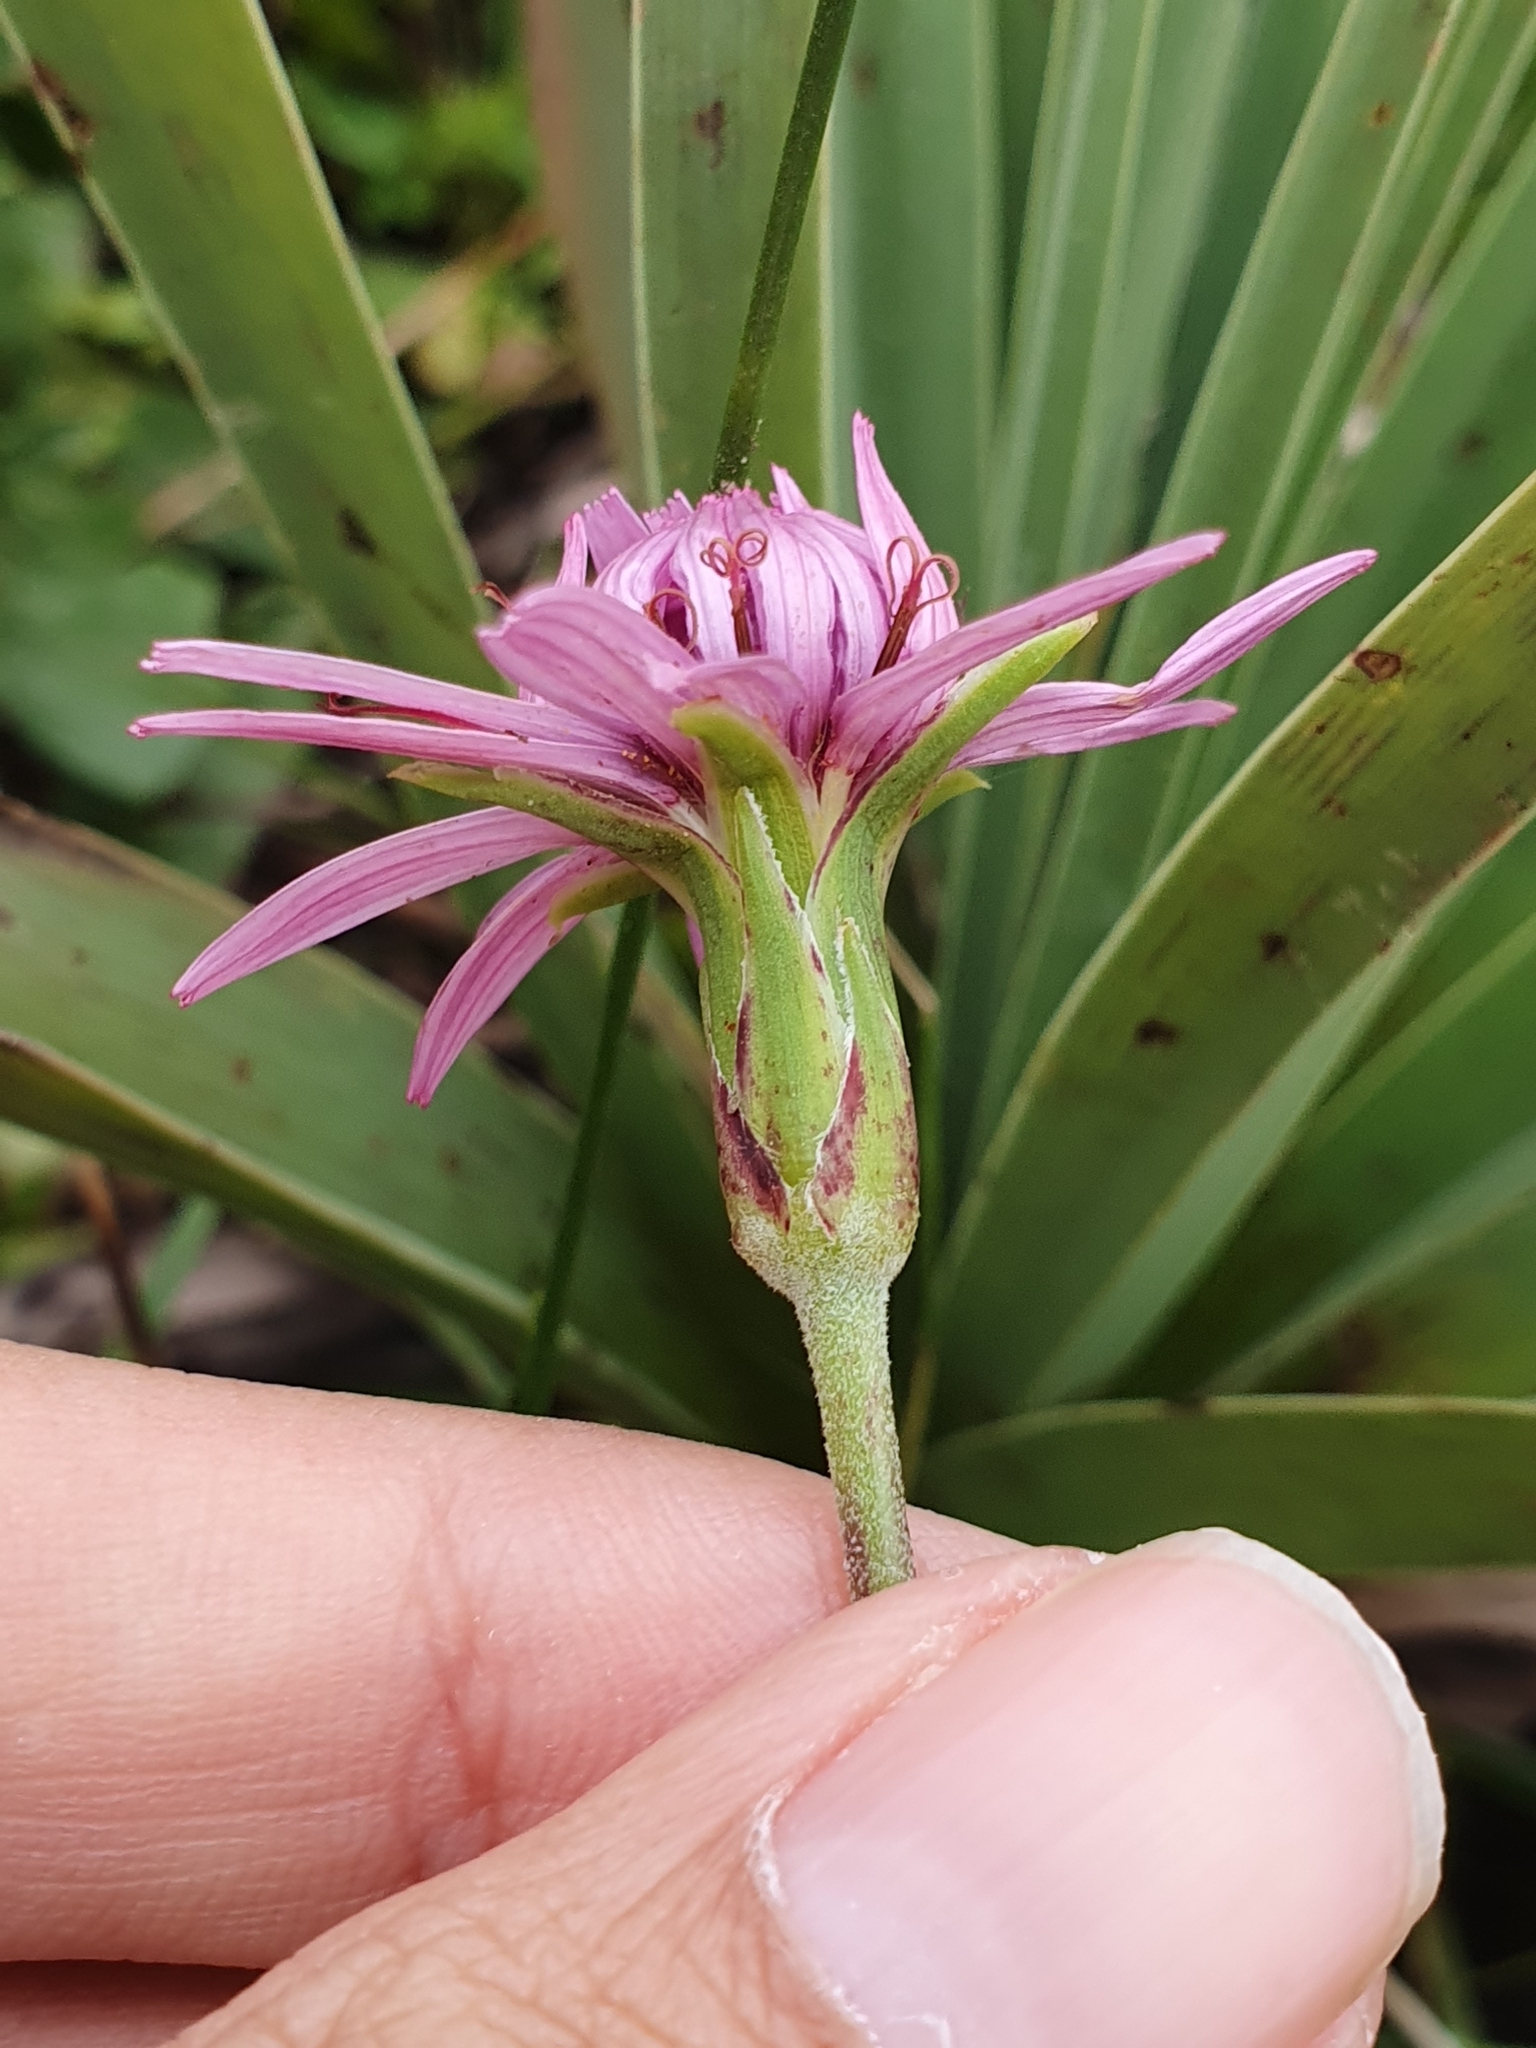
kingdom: Plantae
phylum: Tracheophyta
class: Magnoliopsida
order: Asterales
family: Asteraceae
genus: Pseudopodospermum
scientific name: Pseudopodospermum undulatum
